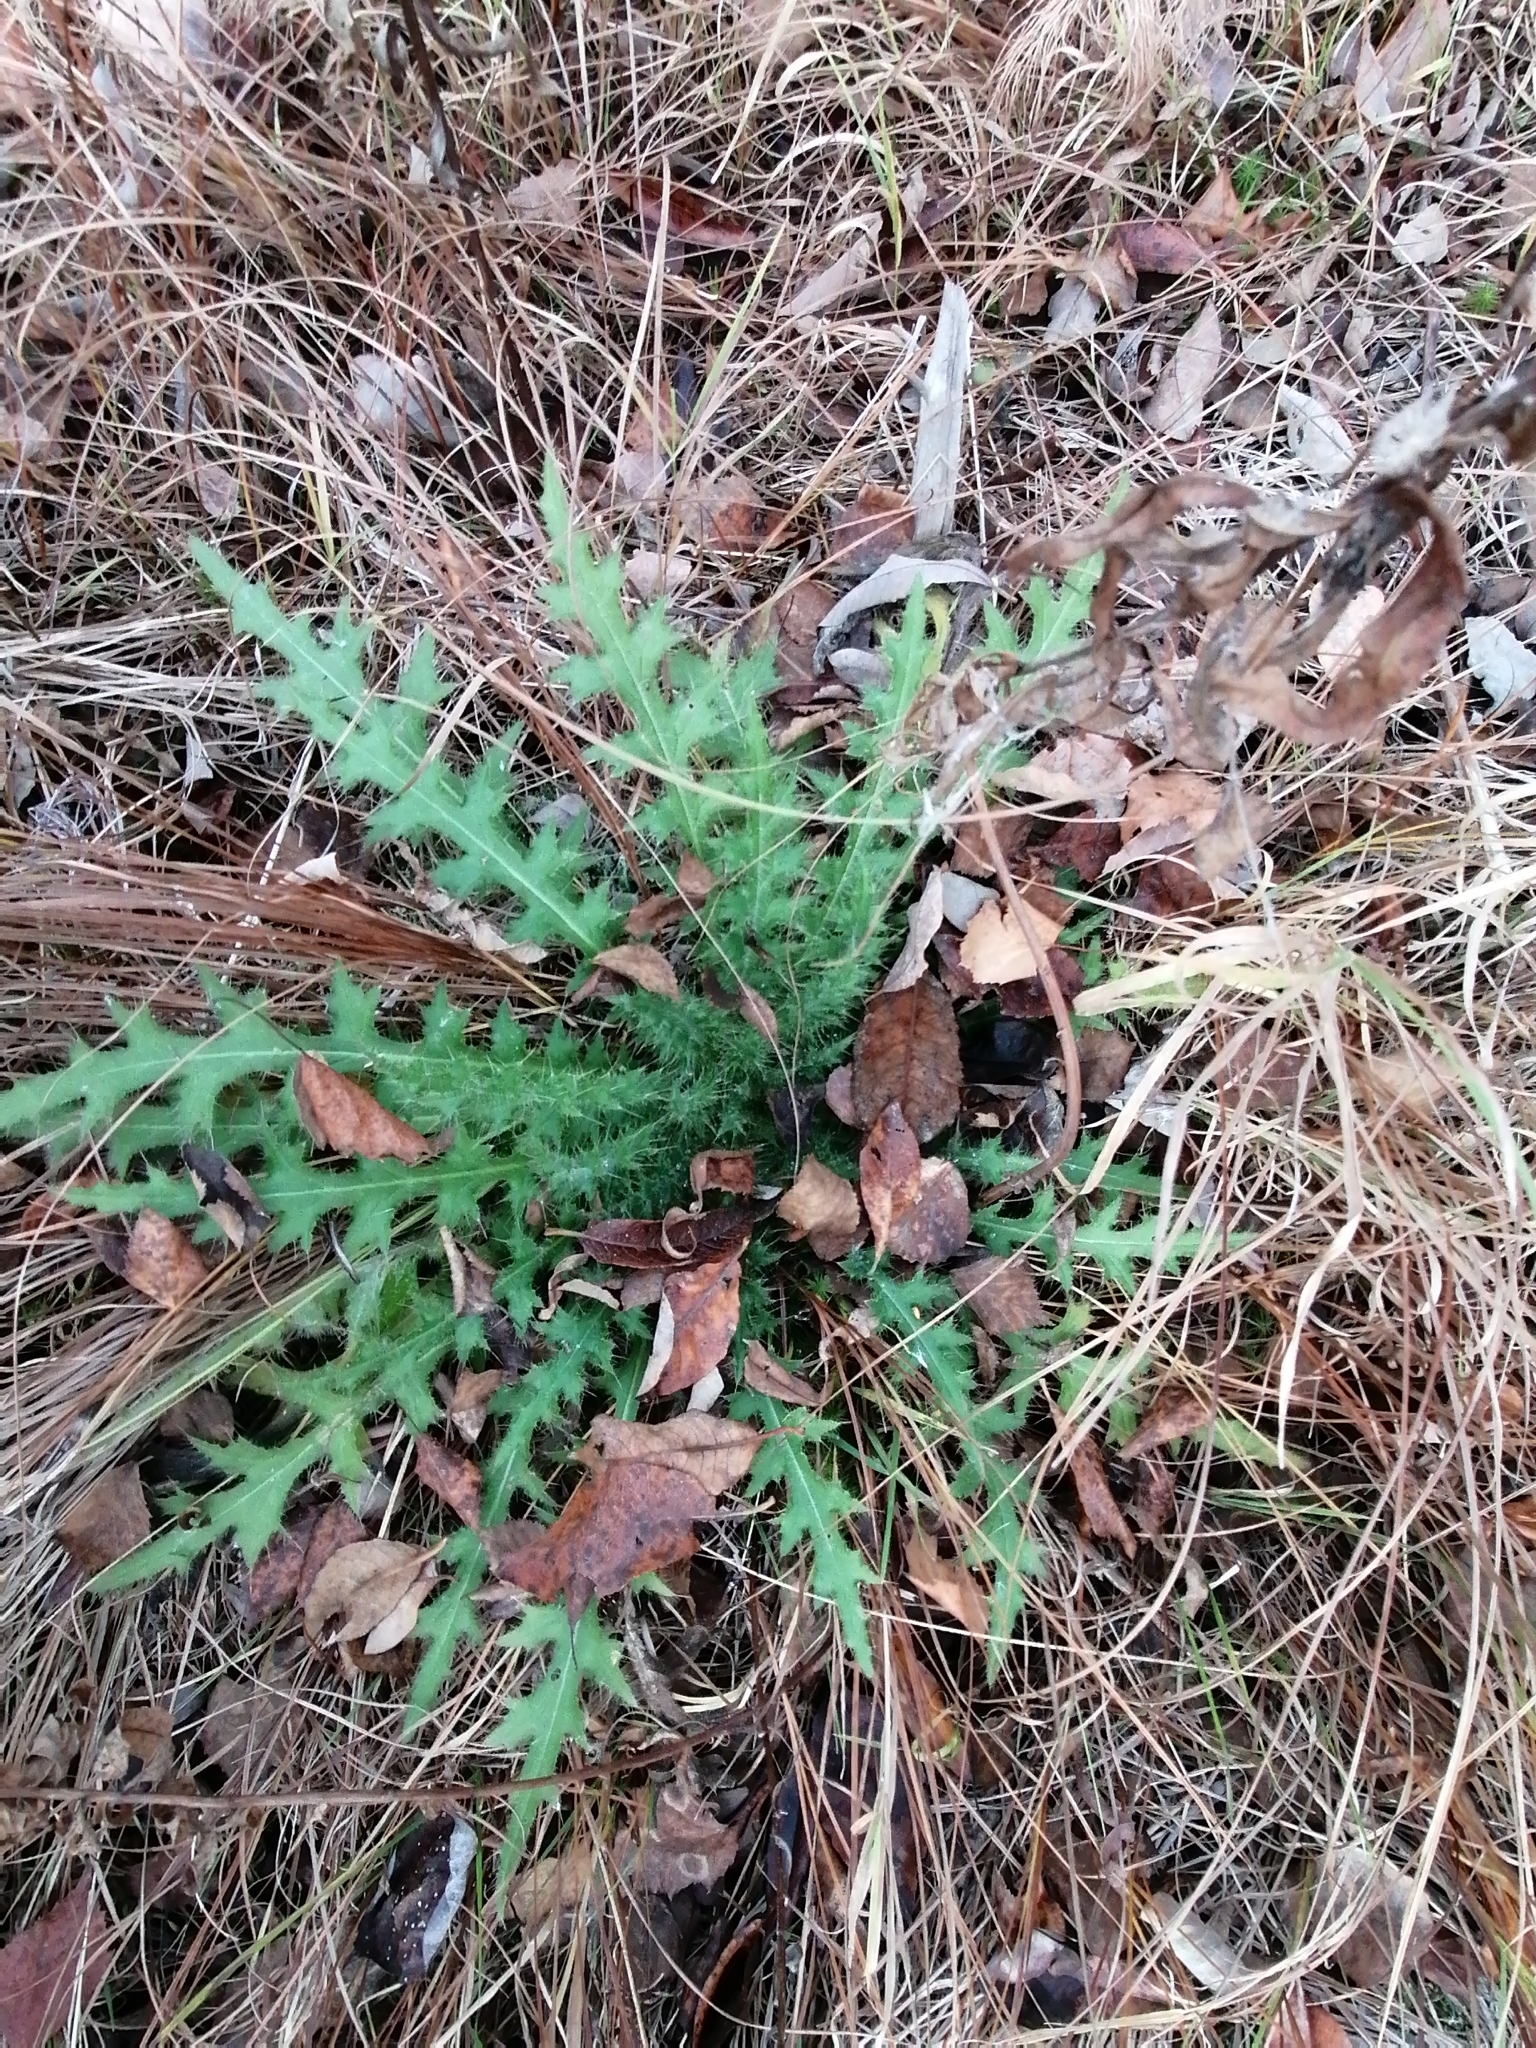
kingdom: Plantae
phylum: Tracheophyta
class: Magnoliopsida
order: Asterales
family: Asteraceae
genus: Cirsium
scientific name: Cirsium palustre
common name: Marsh thistle
